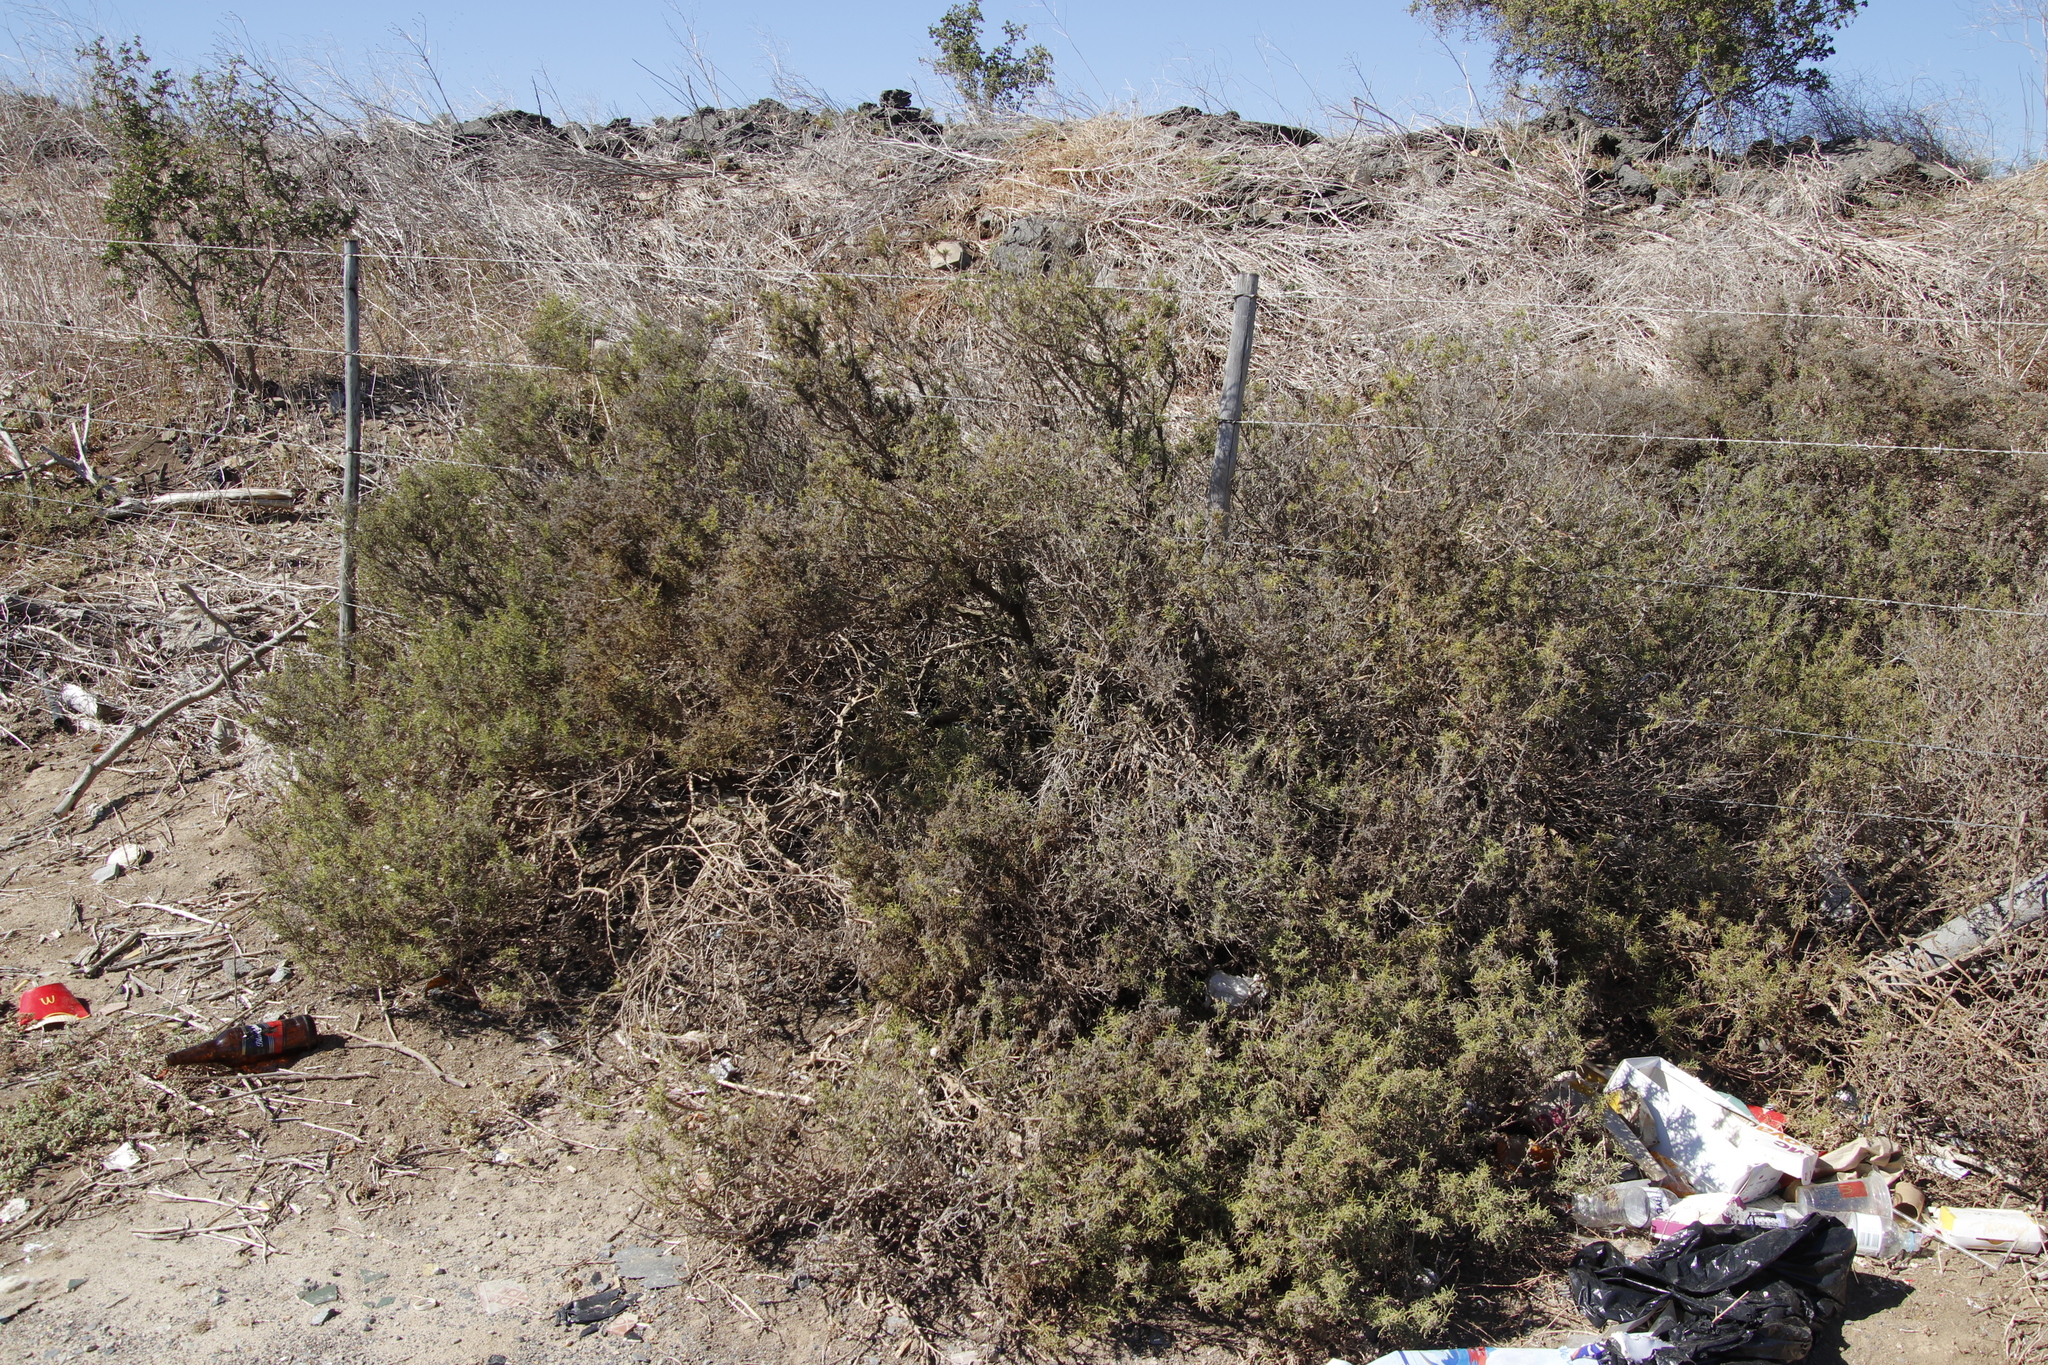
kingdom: Plantae
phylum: Tracheophyta
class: Magnoliopsida
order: Caryophyllales
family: Aizoaceae
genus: Aizoon
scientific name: Aizoon africanum
